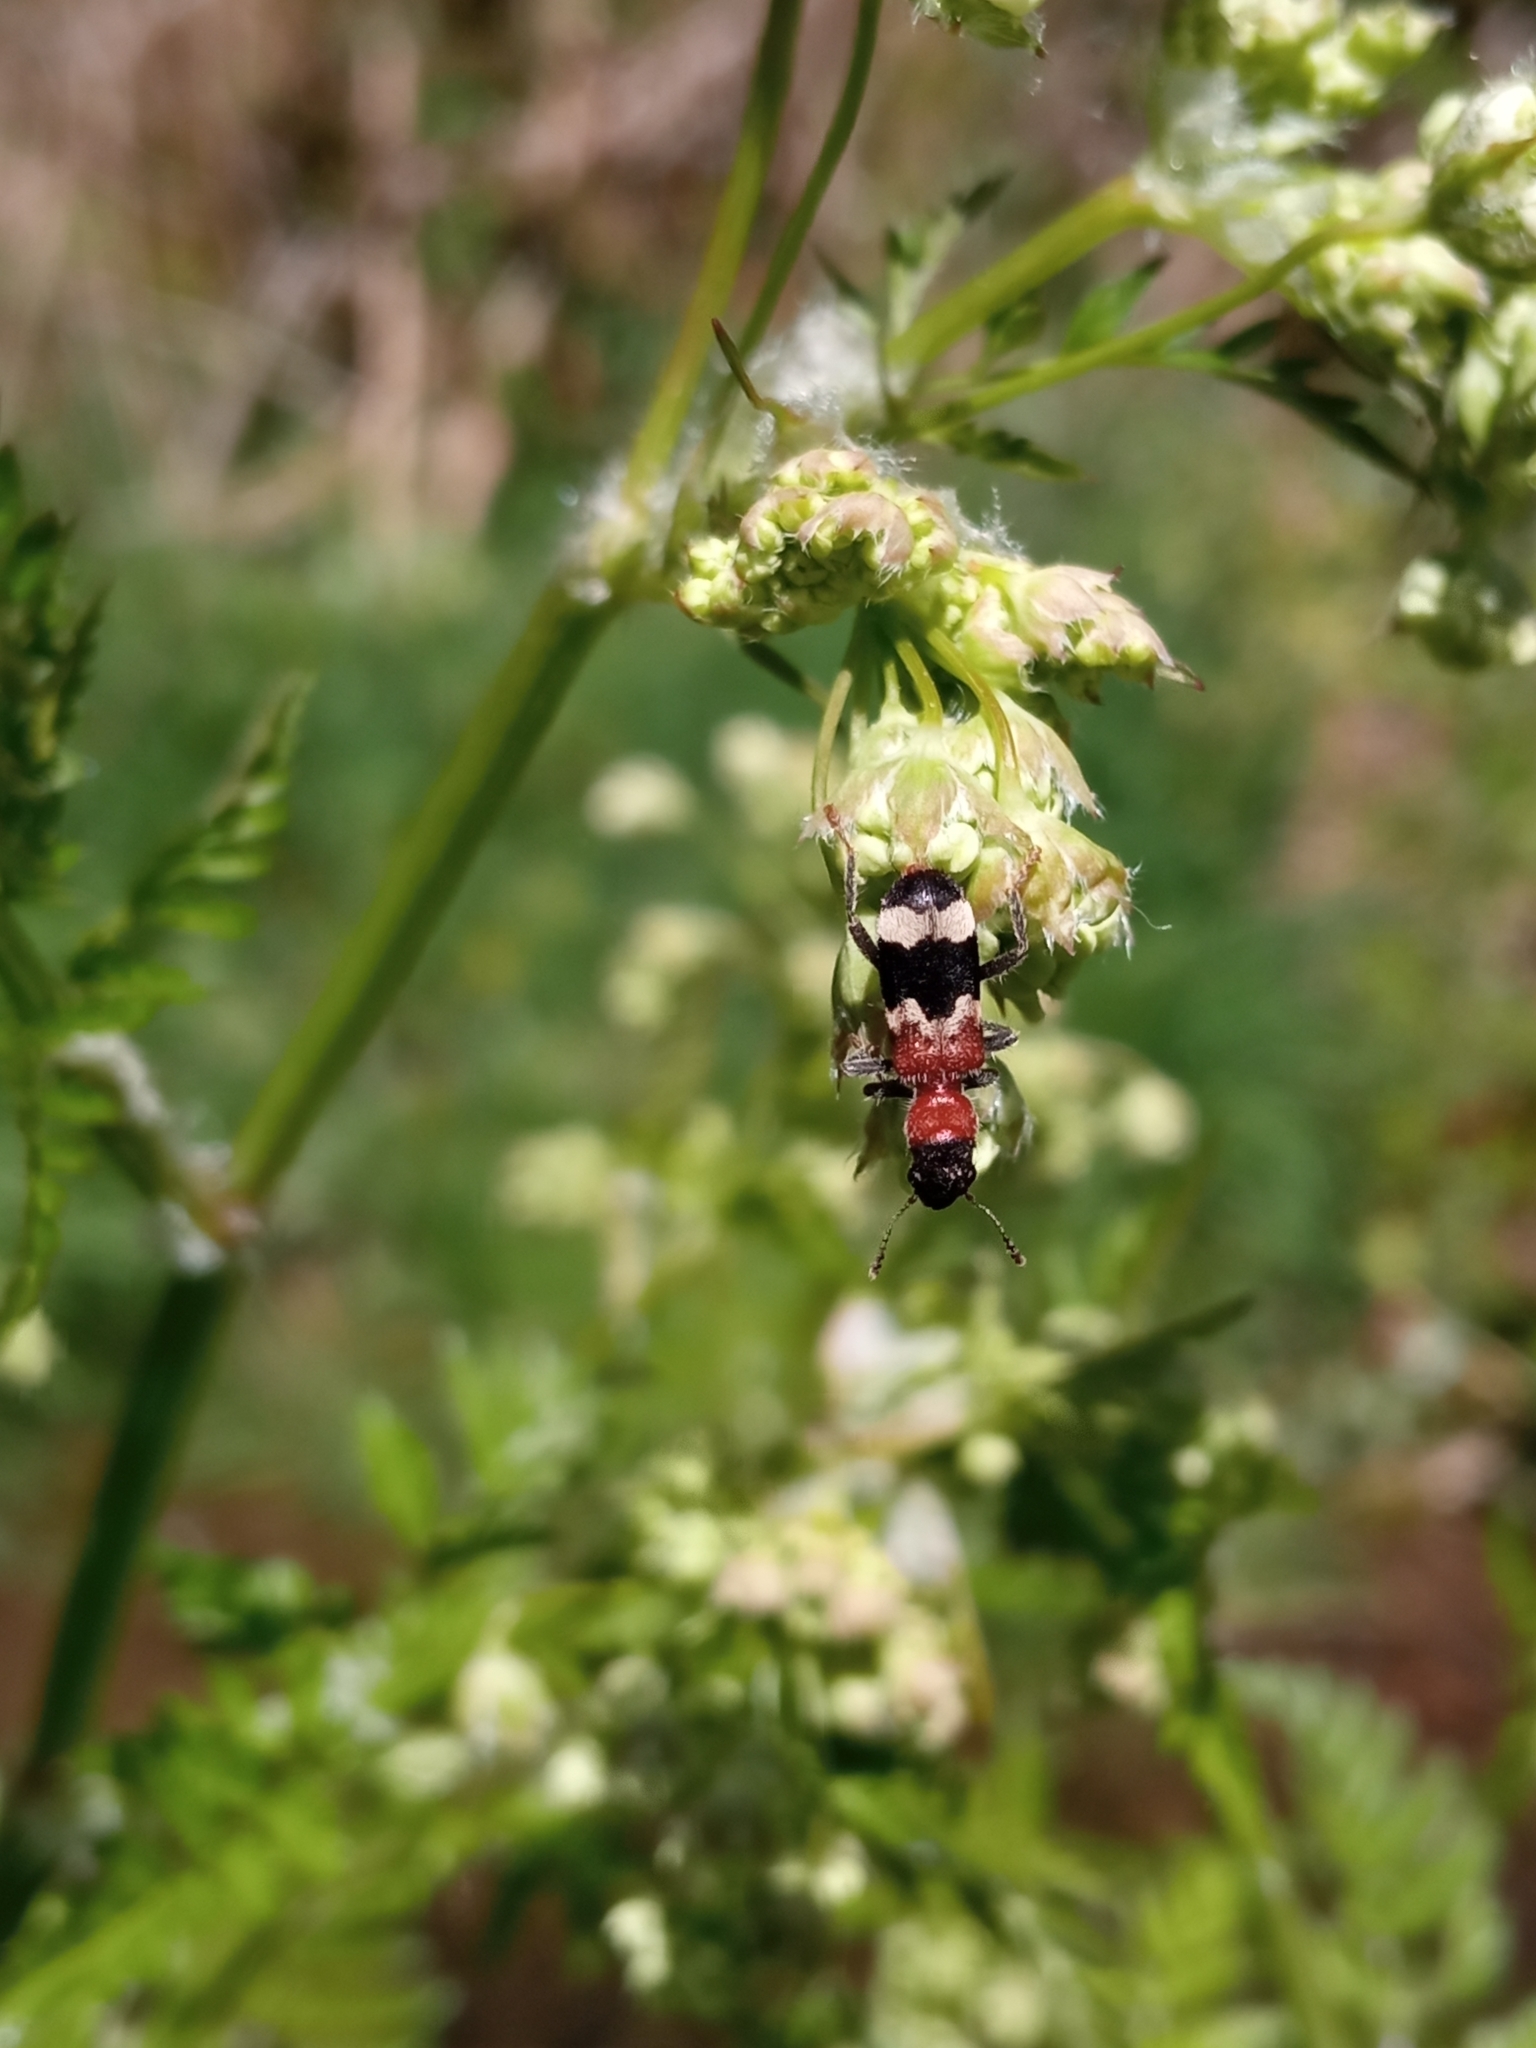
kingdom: Animalia
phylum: Arthropoda
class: Insecta
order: Coleoptera
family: Cleridae
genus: Thanasimus
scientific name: Thanasimus formicarius
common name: Ant beetle
